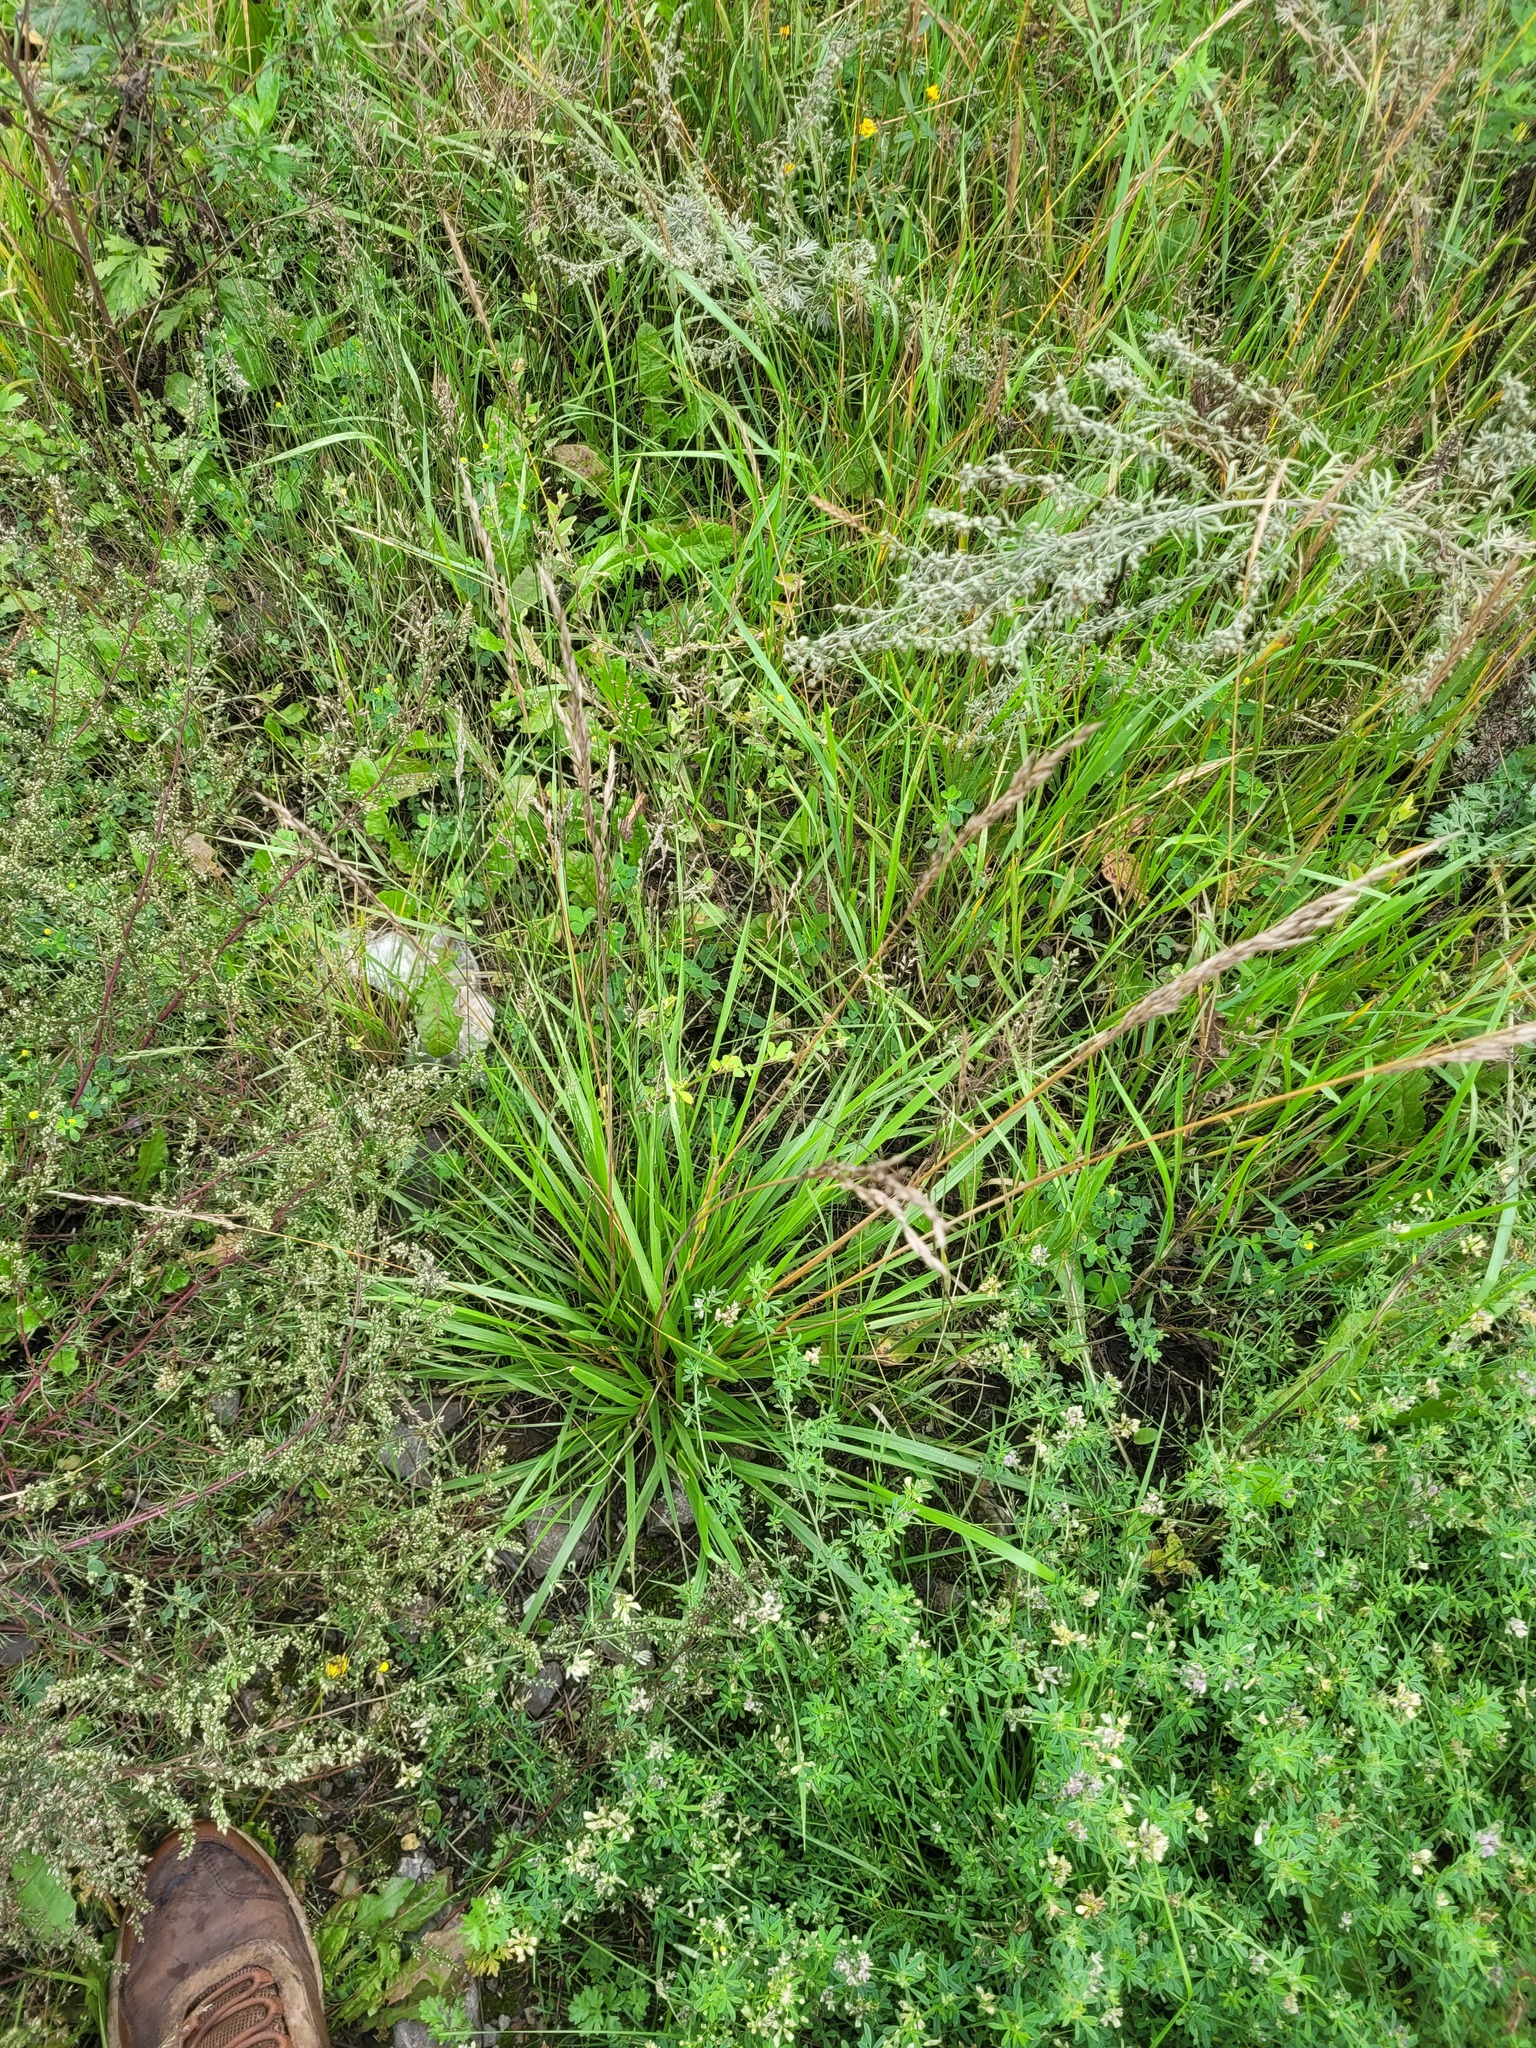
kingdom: Plantae
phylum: Tracheophyta
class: Liliopsida
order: Poales
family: Poaceae
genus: Lolium
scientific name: Lolium arundinaceum
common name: Reed fescue
